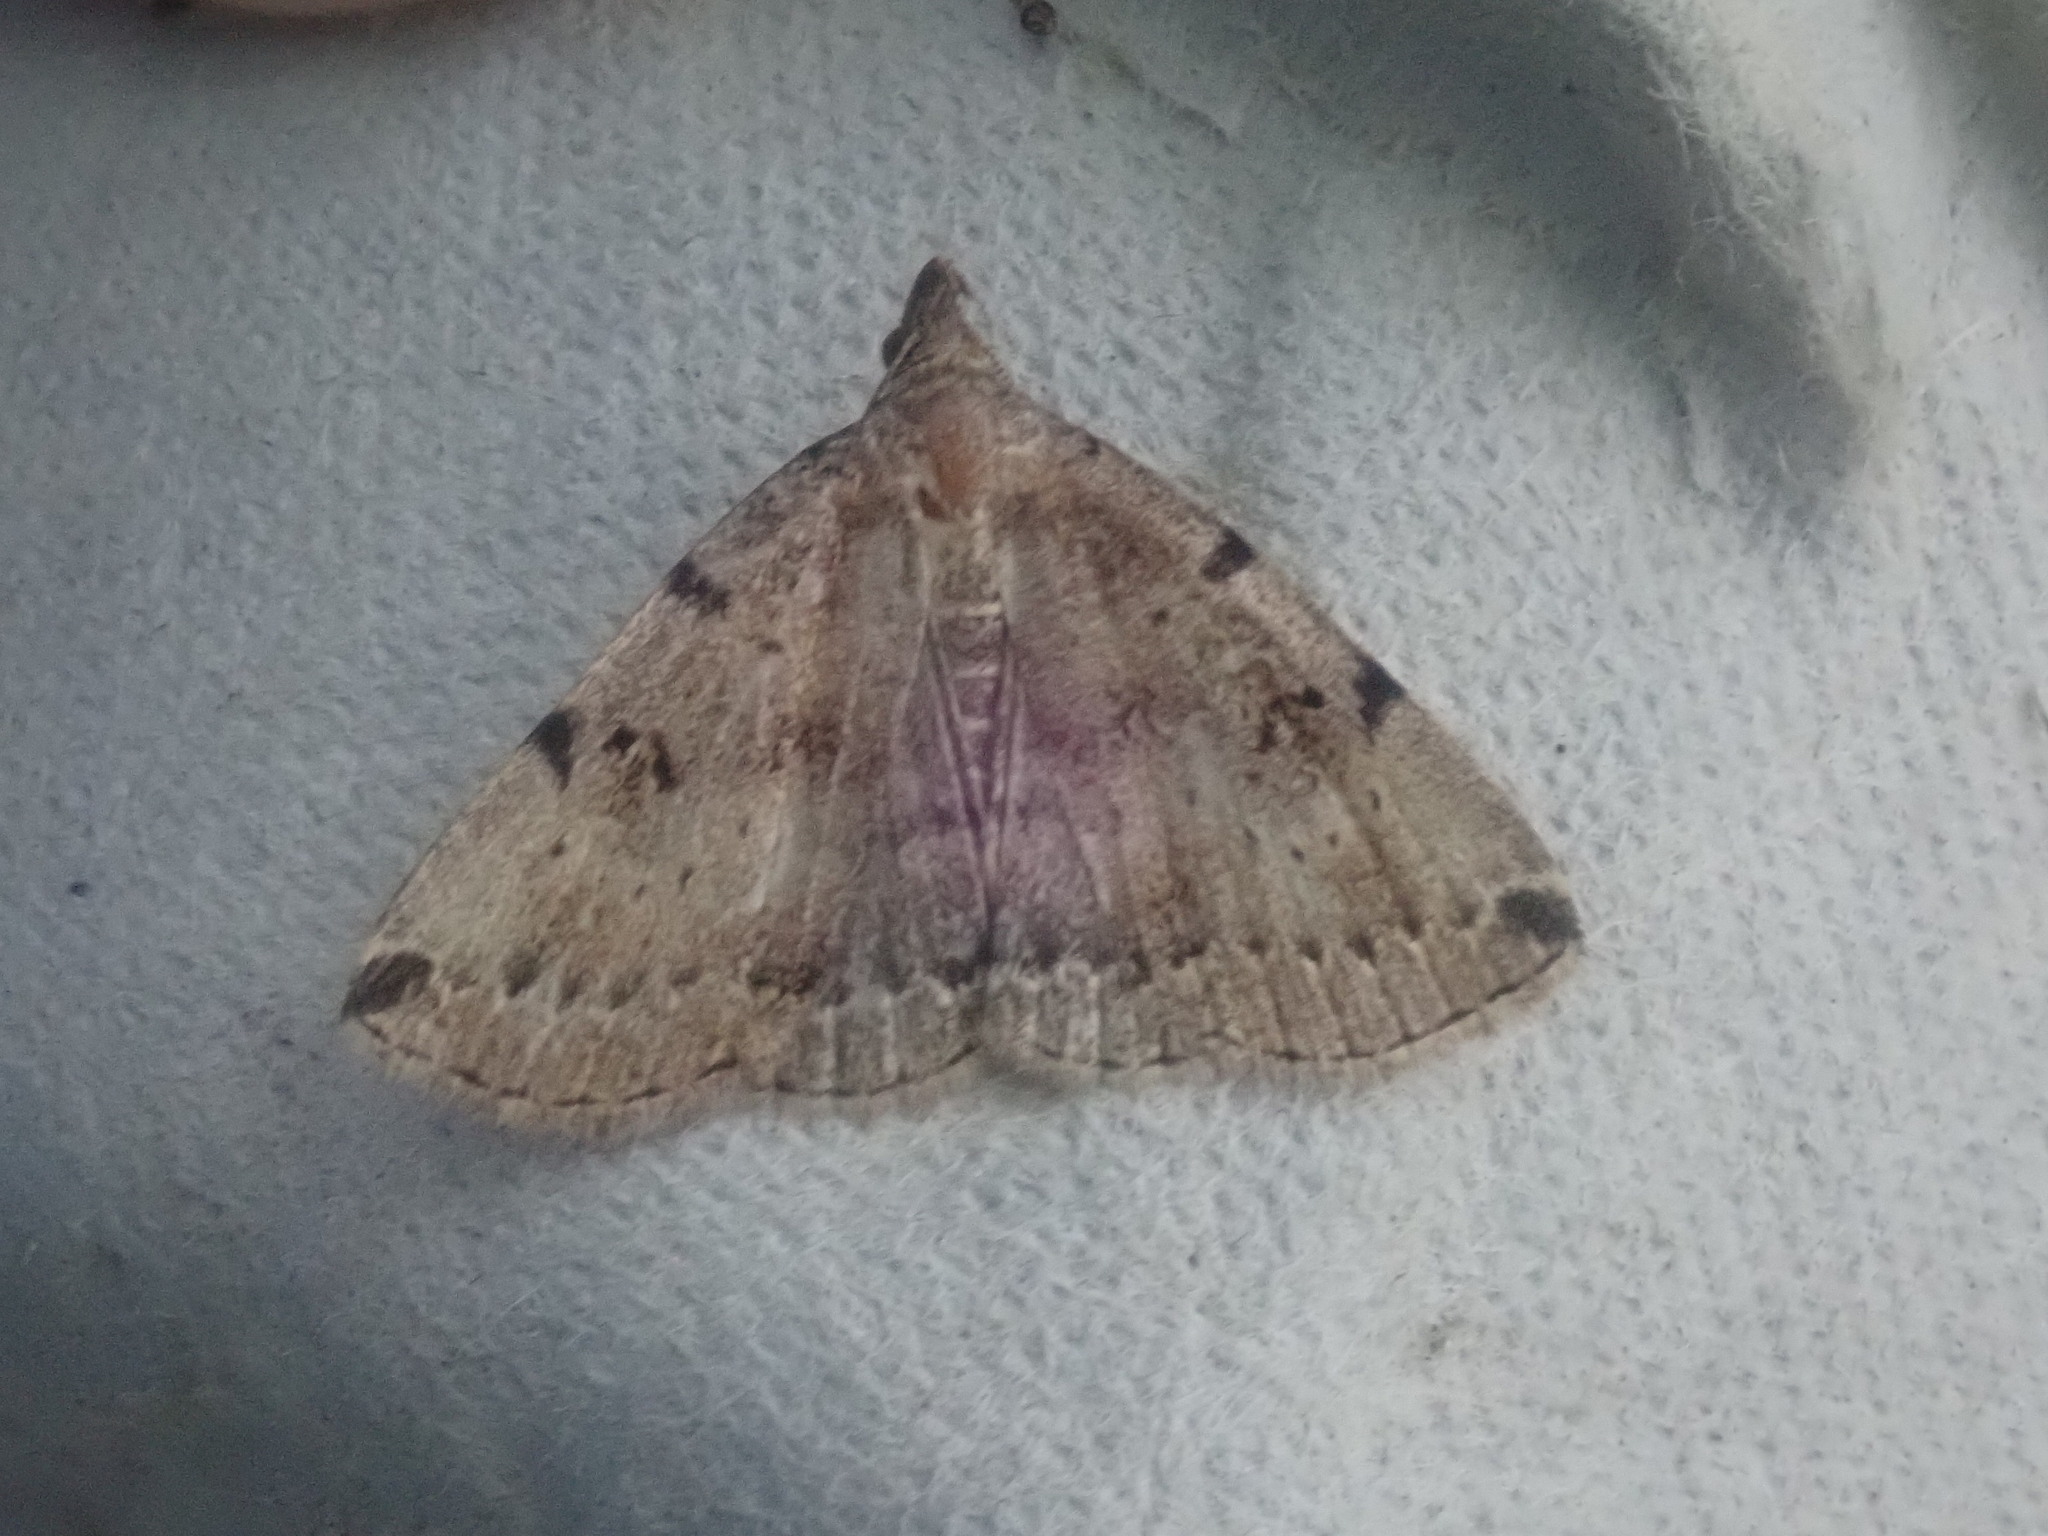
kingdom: Animalia
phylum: Arthropoda
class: Insecta
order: Lepidoptera
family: Erebidae
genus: Zanclognatha
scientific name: Zanclognatha lituralis
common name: Lettered fan-foot
